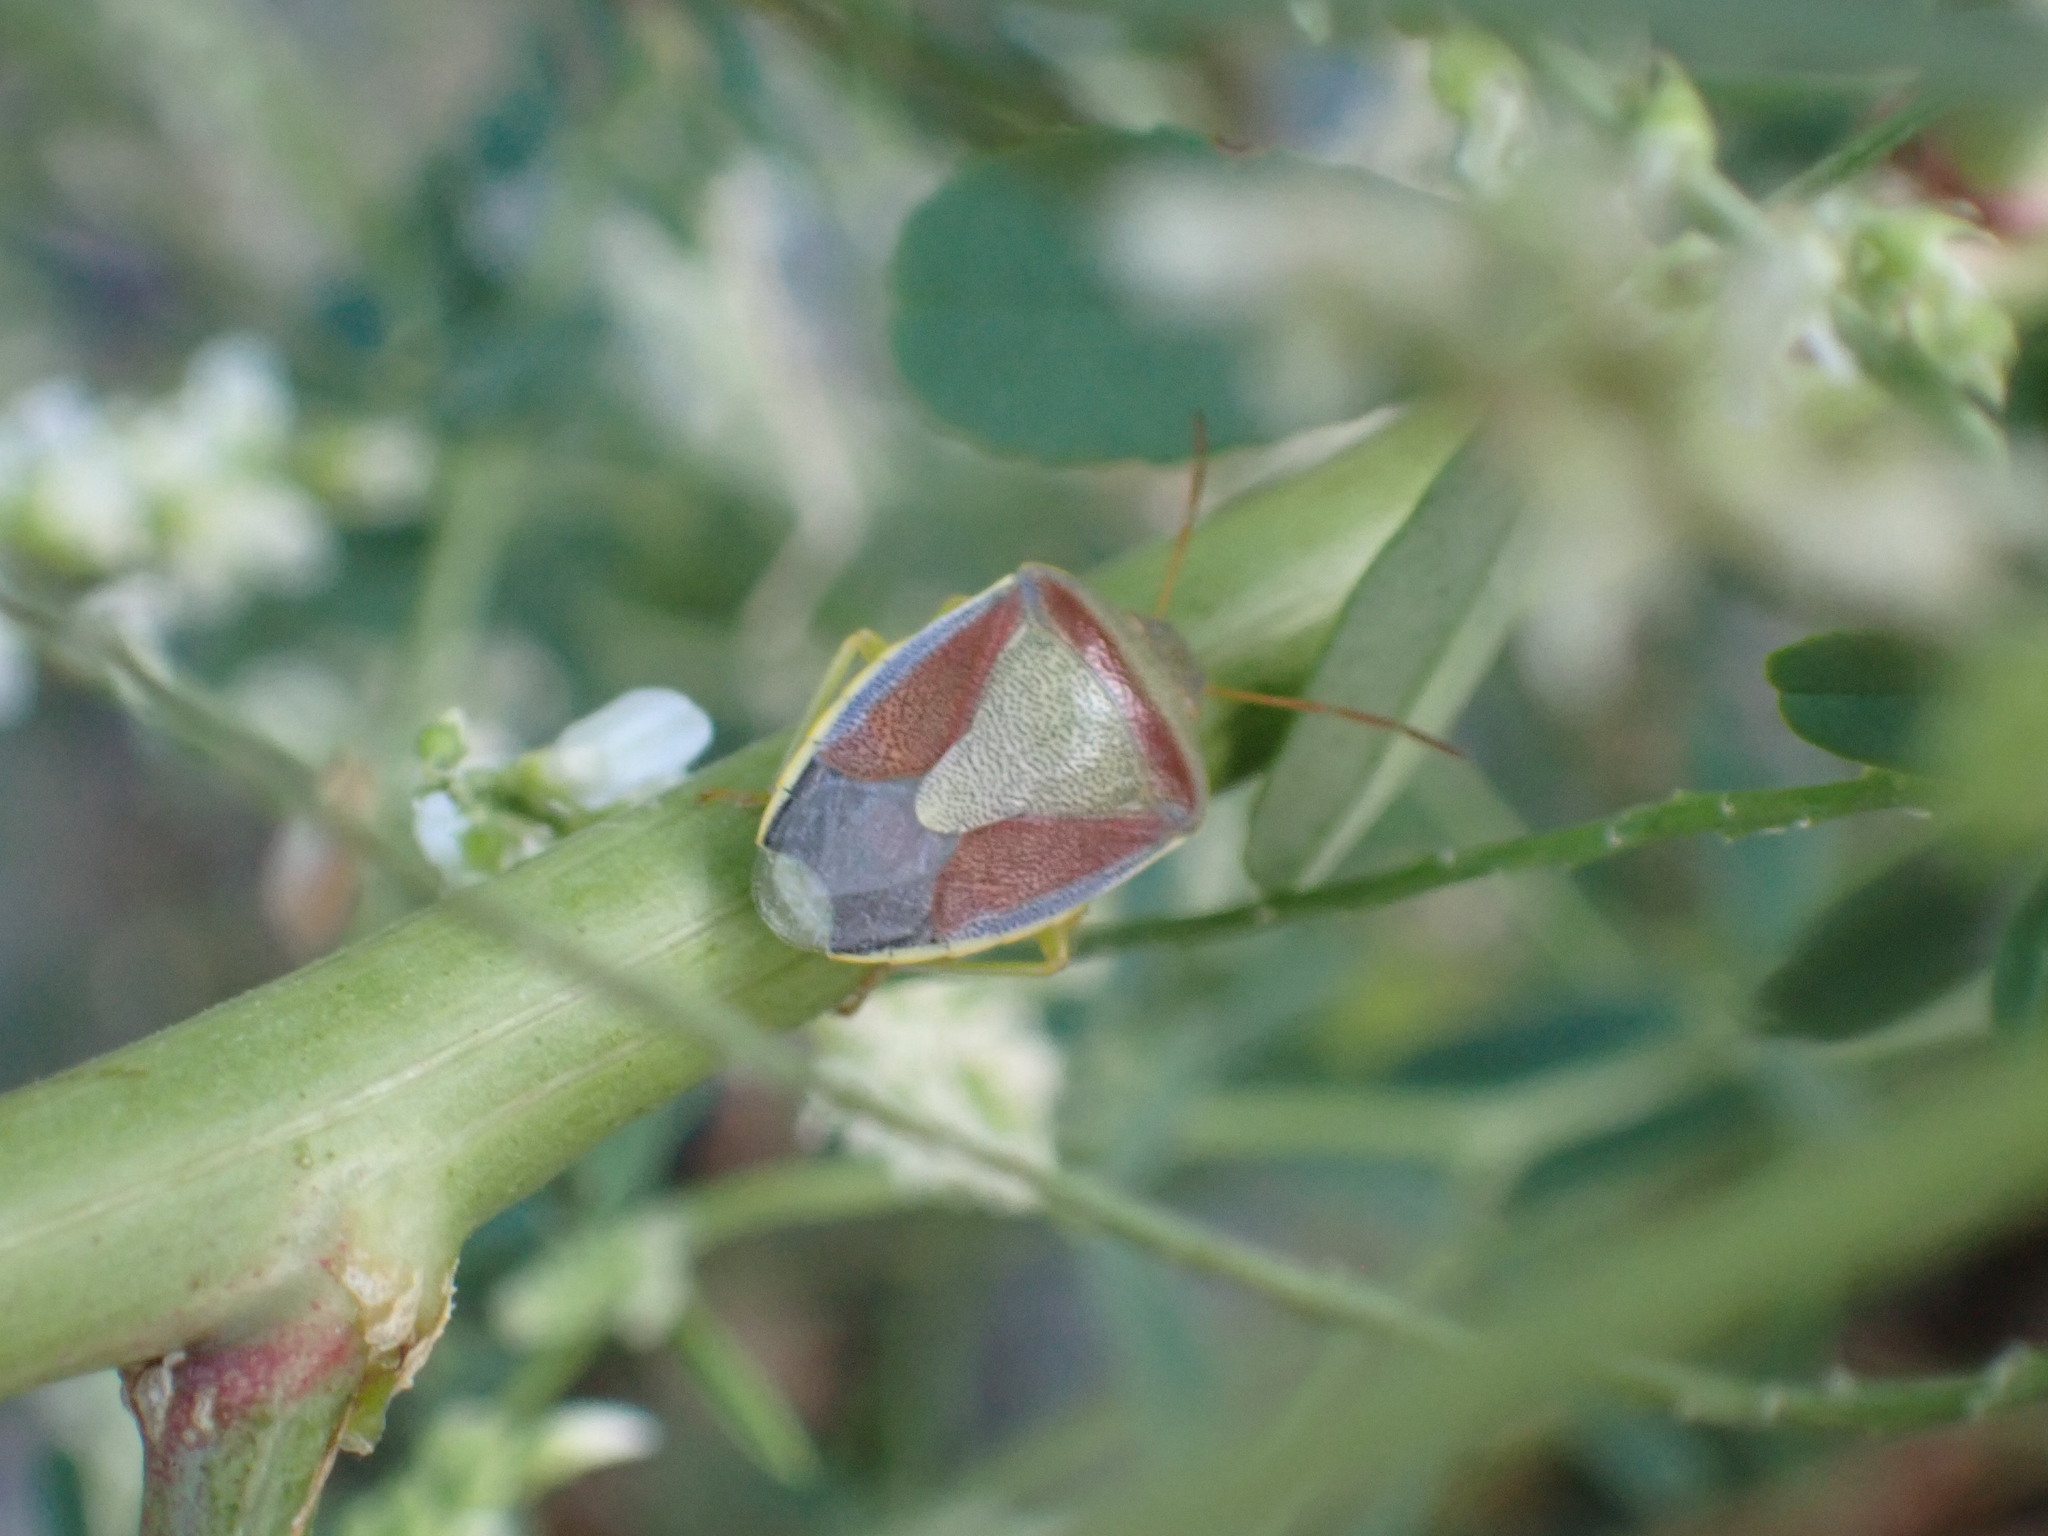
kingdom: Animalia
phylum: Arthropoda
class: Insecta
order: Hemiptera
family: Pentatomidae
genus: Piezodorus
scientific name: Piezodorus lituratus
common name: Stink bug
